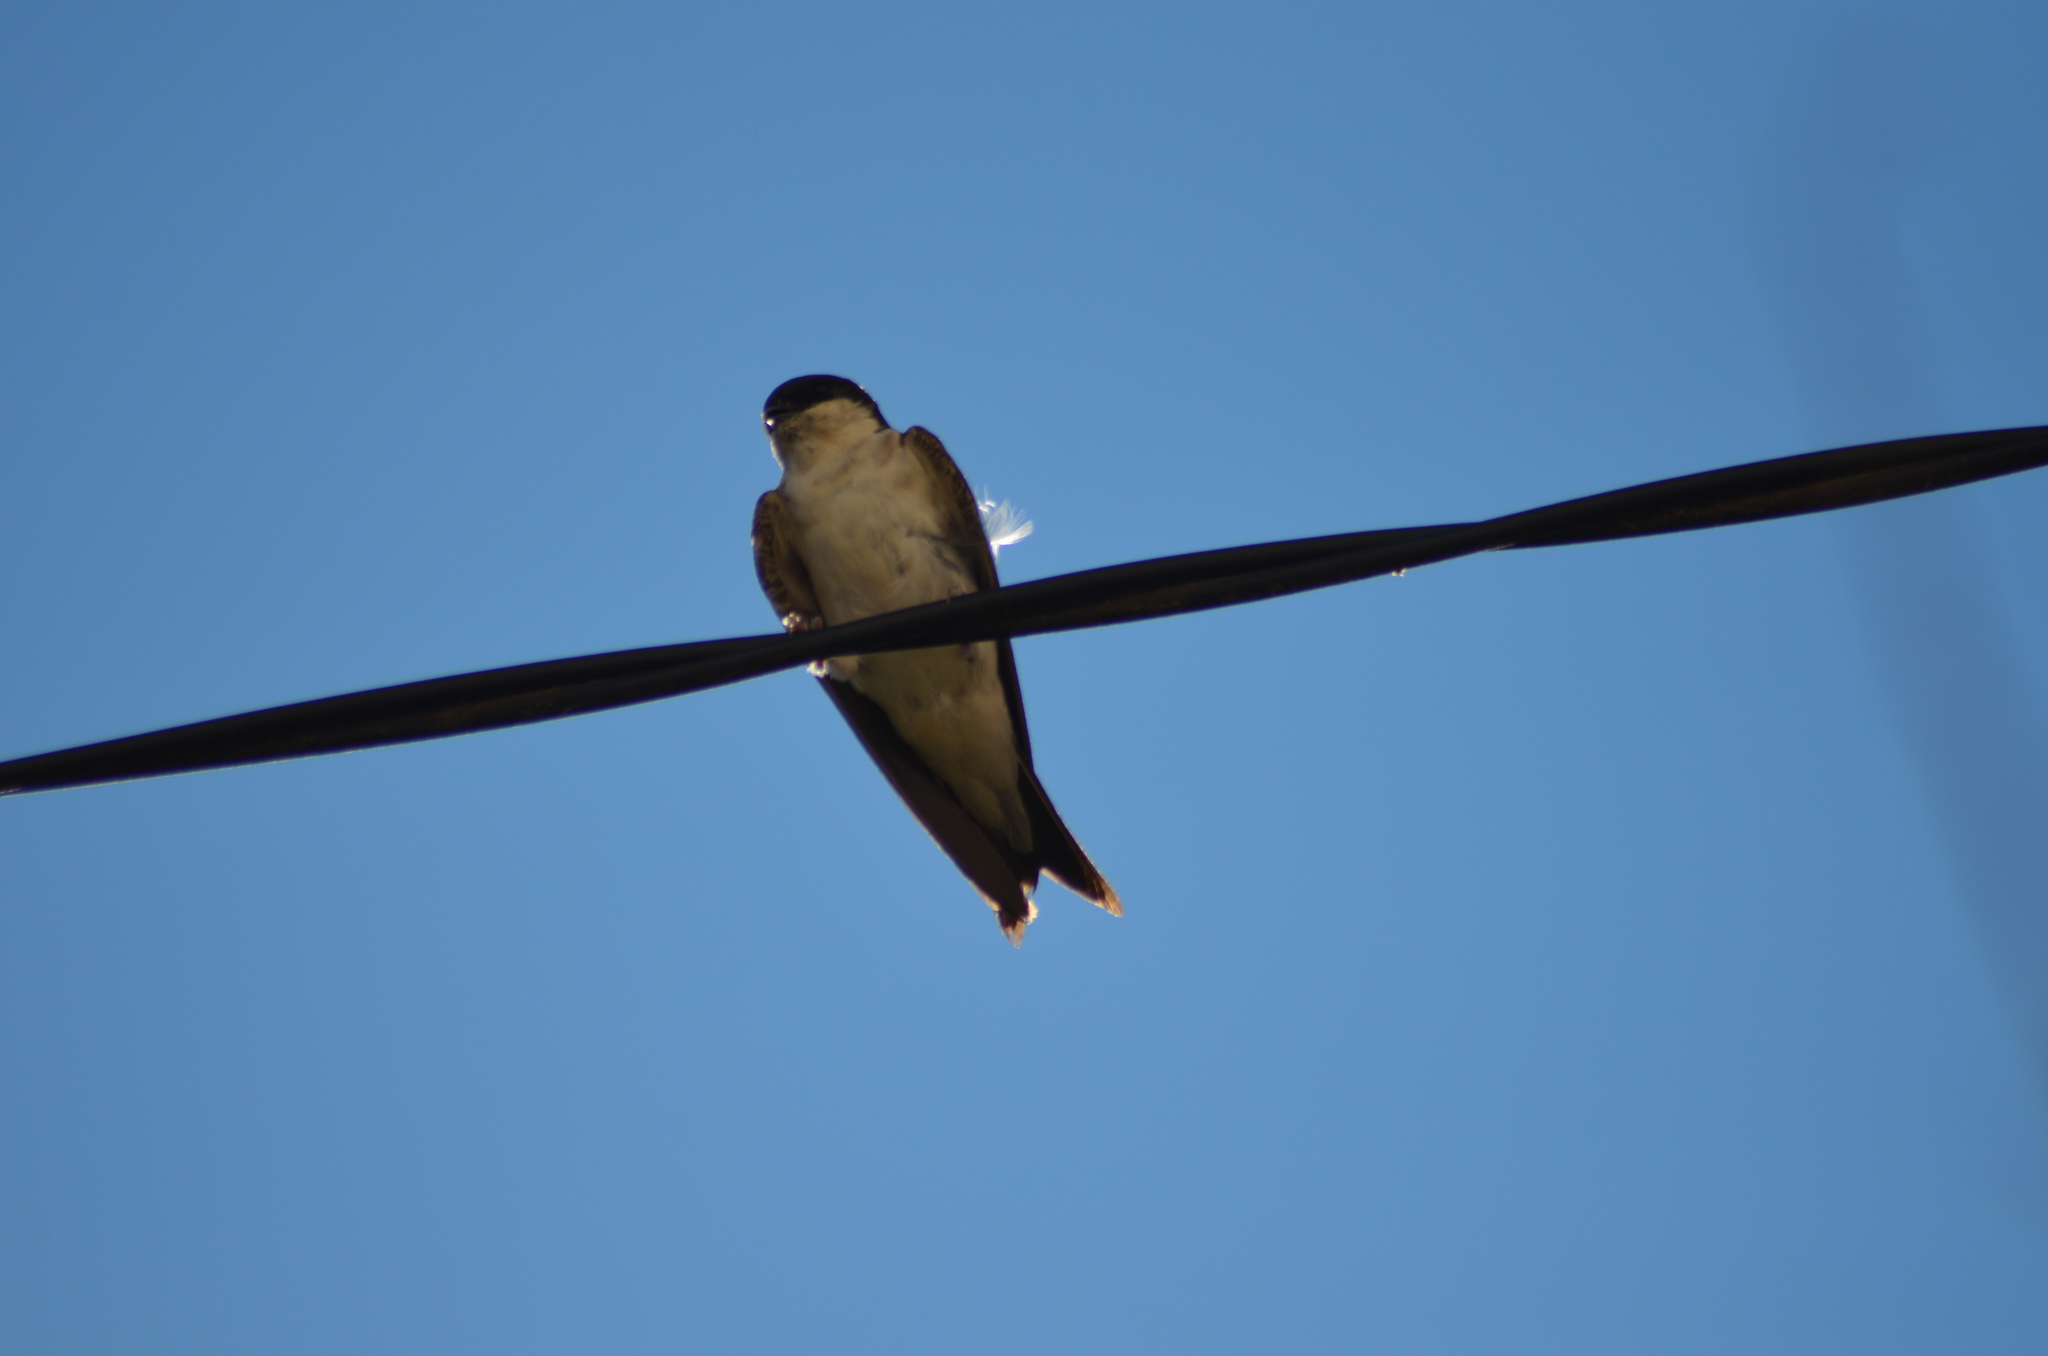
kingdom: Animalia
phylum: Chordata
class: Aves
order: Passeriformes
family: Hirundinidae
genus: Delichon
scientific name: Delichon urbicum
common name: Common house martin
